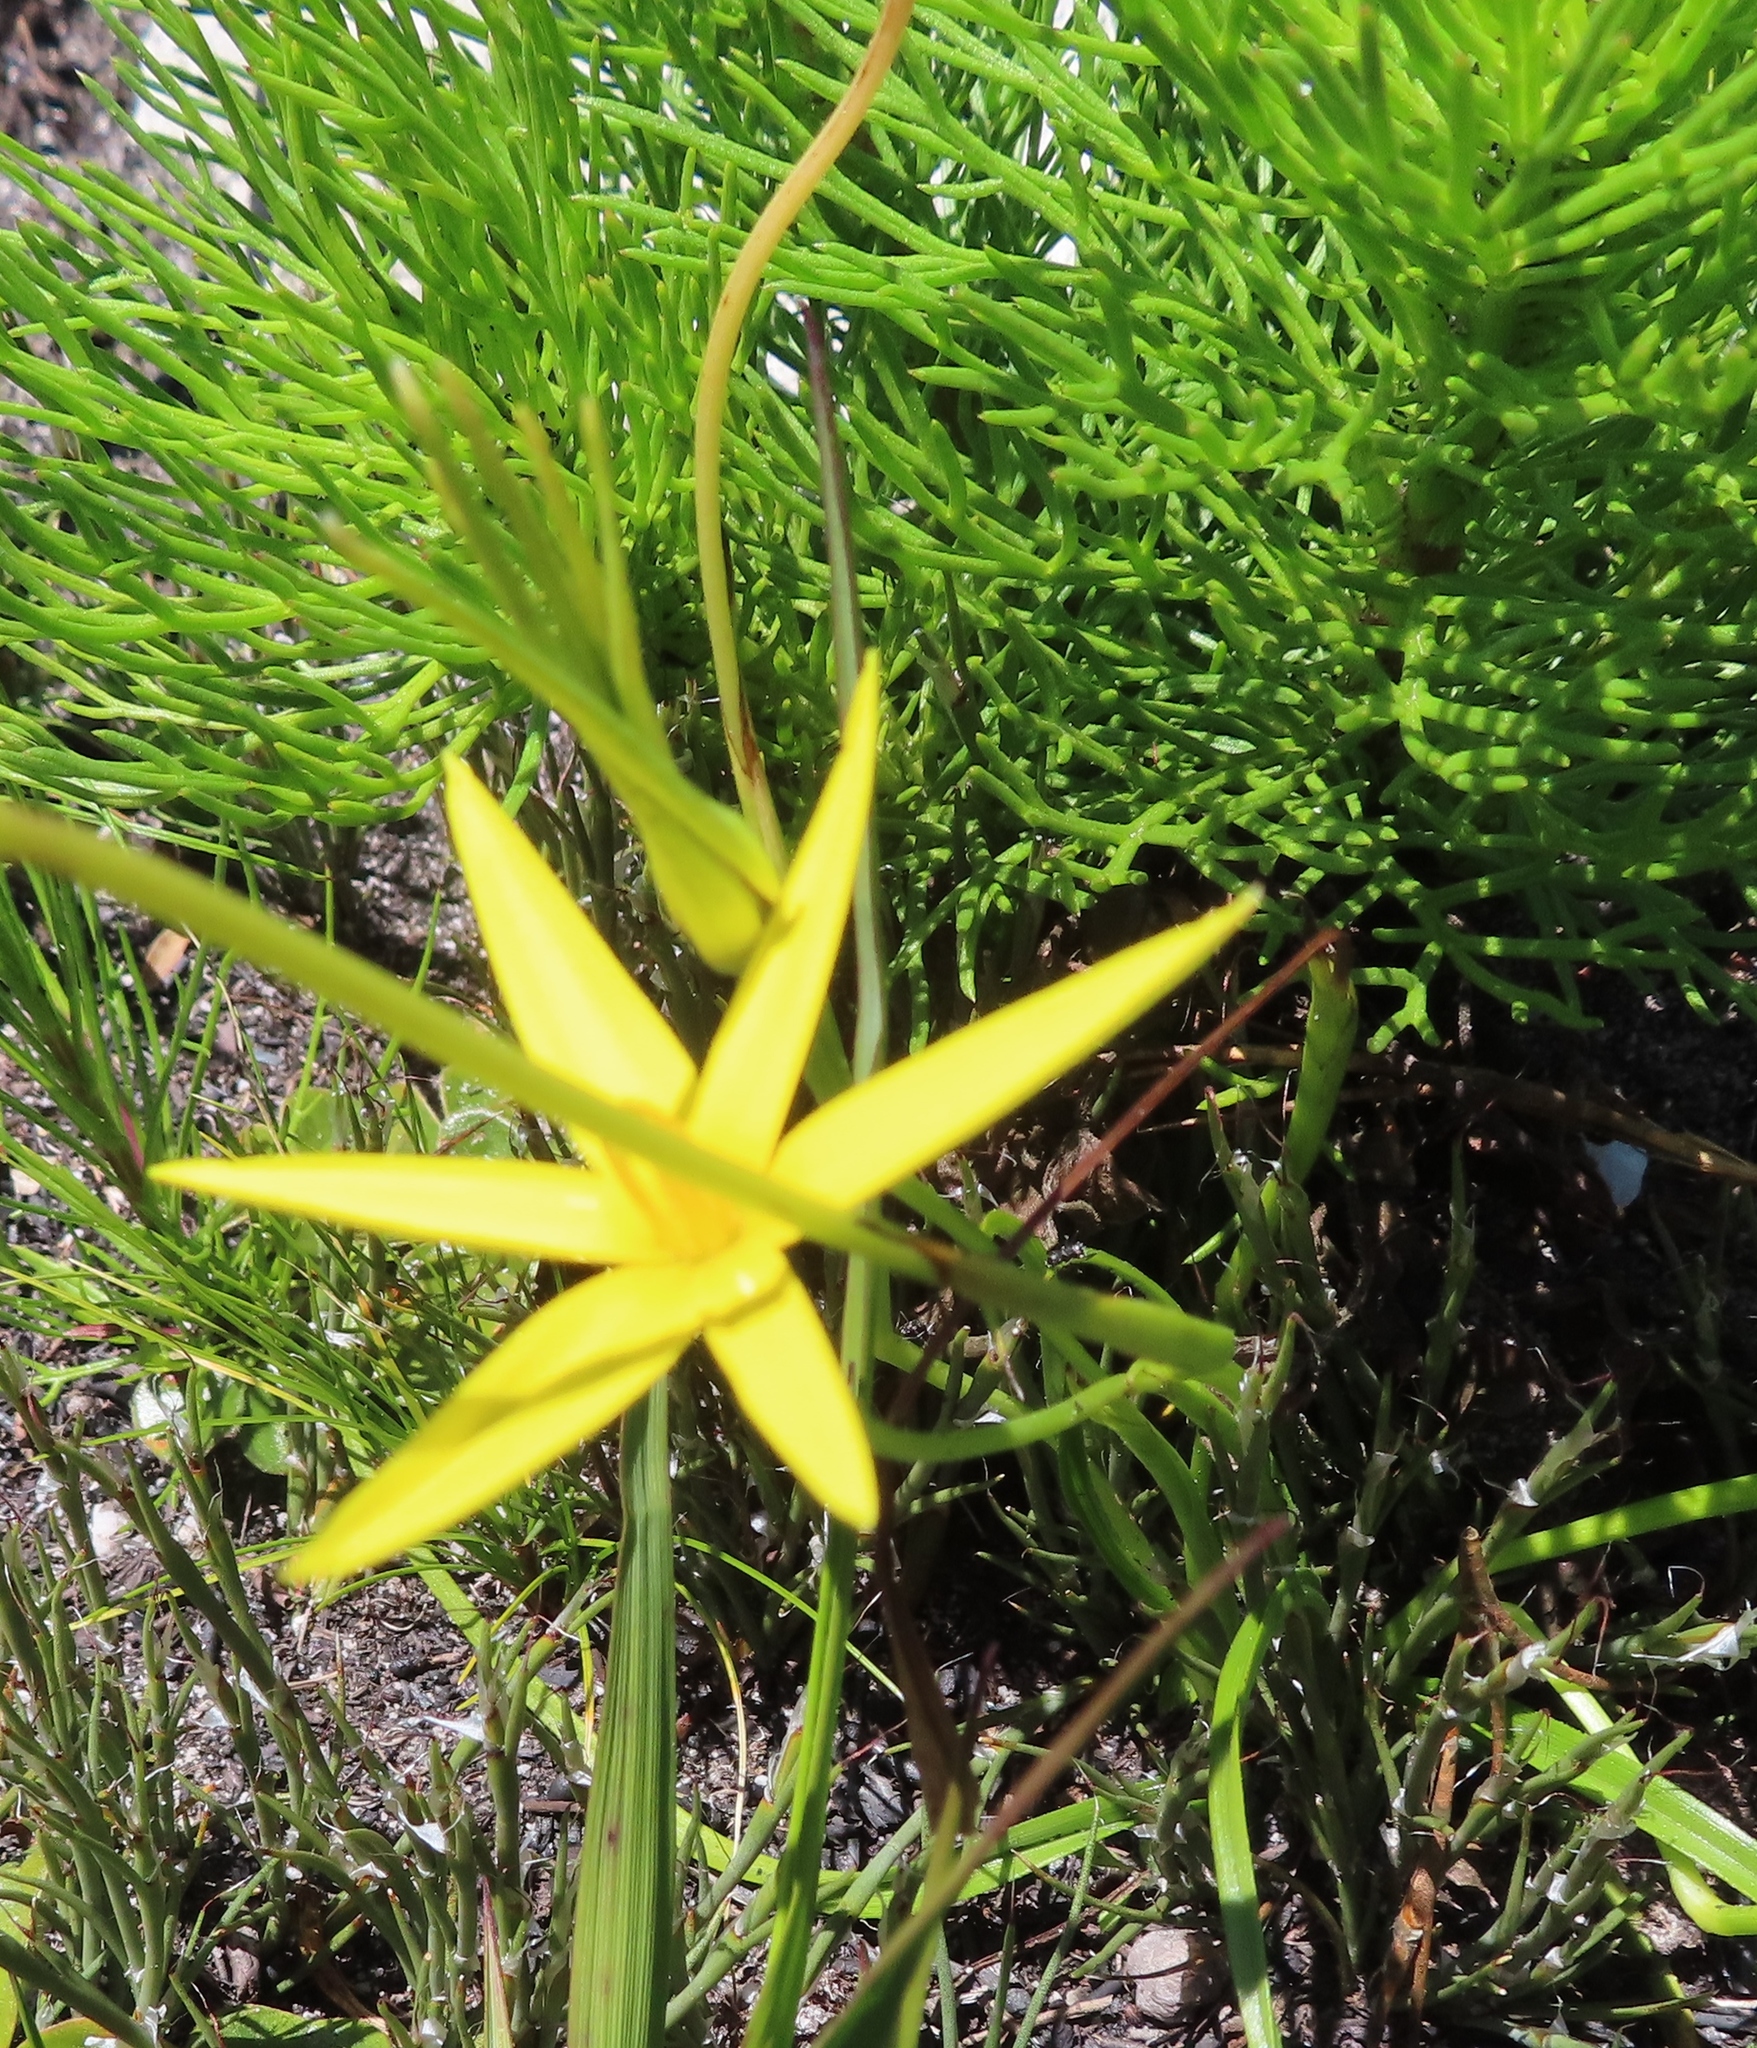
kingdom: Plantae
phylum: Tracheophyta
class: Liliopsida
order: Asparagales
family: Hypoxidaceae
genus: Pauridia
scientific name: Pauridia capensis
